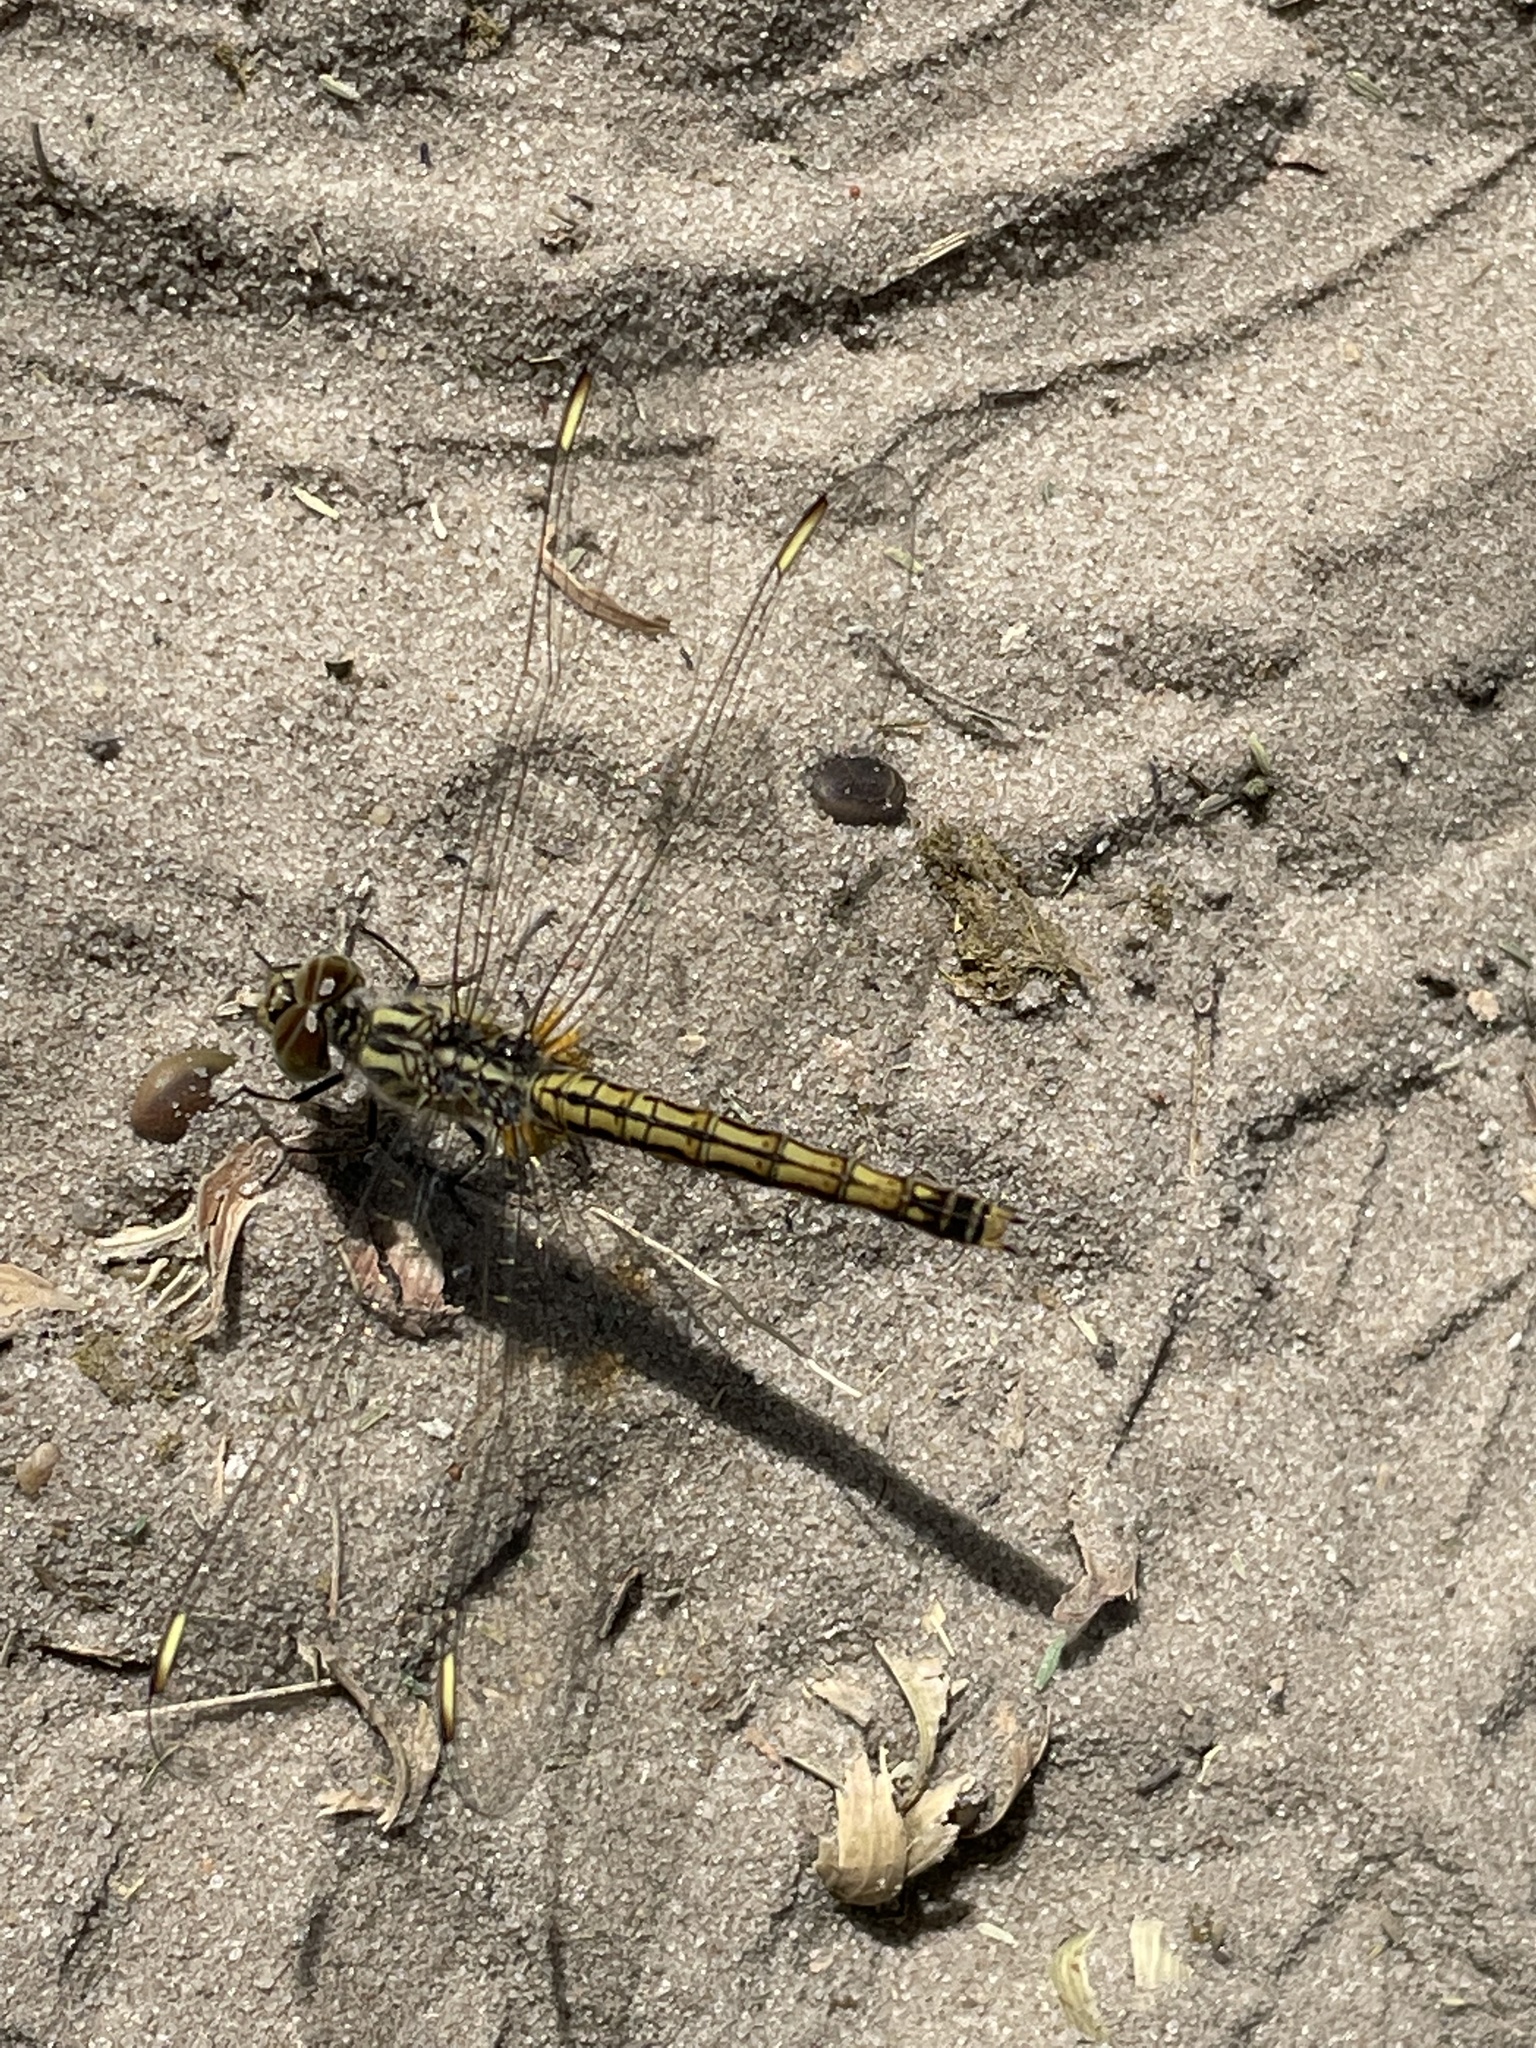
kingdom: Animalia
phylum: Arthropoda
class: Insecta
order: Odonata
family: Libellulidae
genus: Brachythemis
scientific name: Brachythemis leucosticta
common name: Banded groundling
